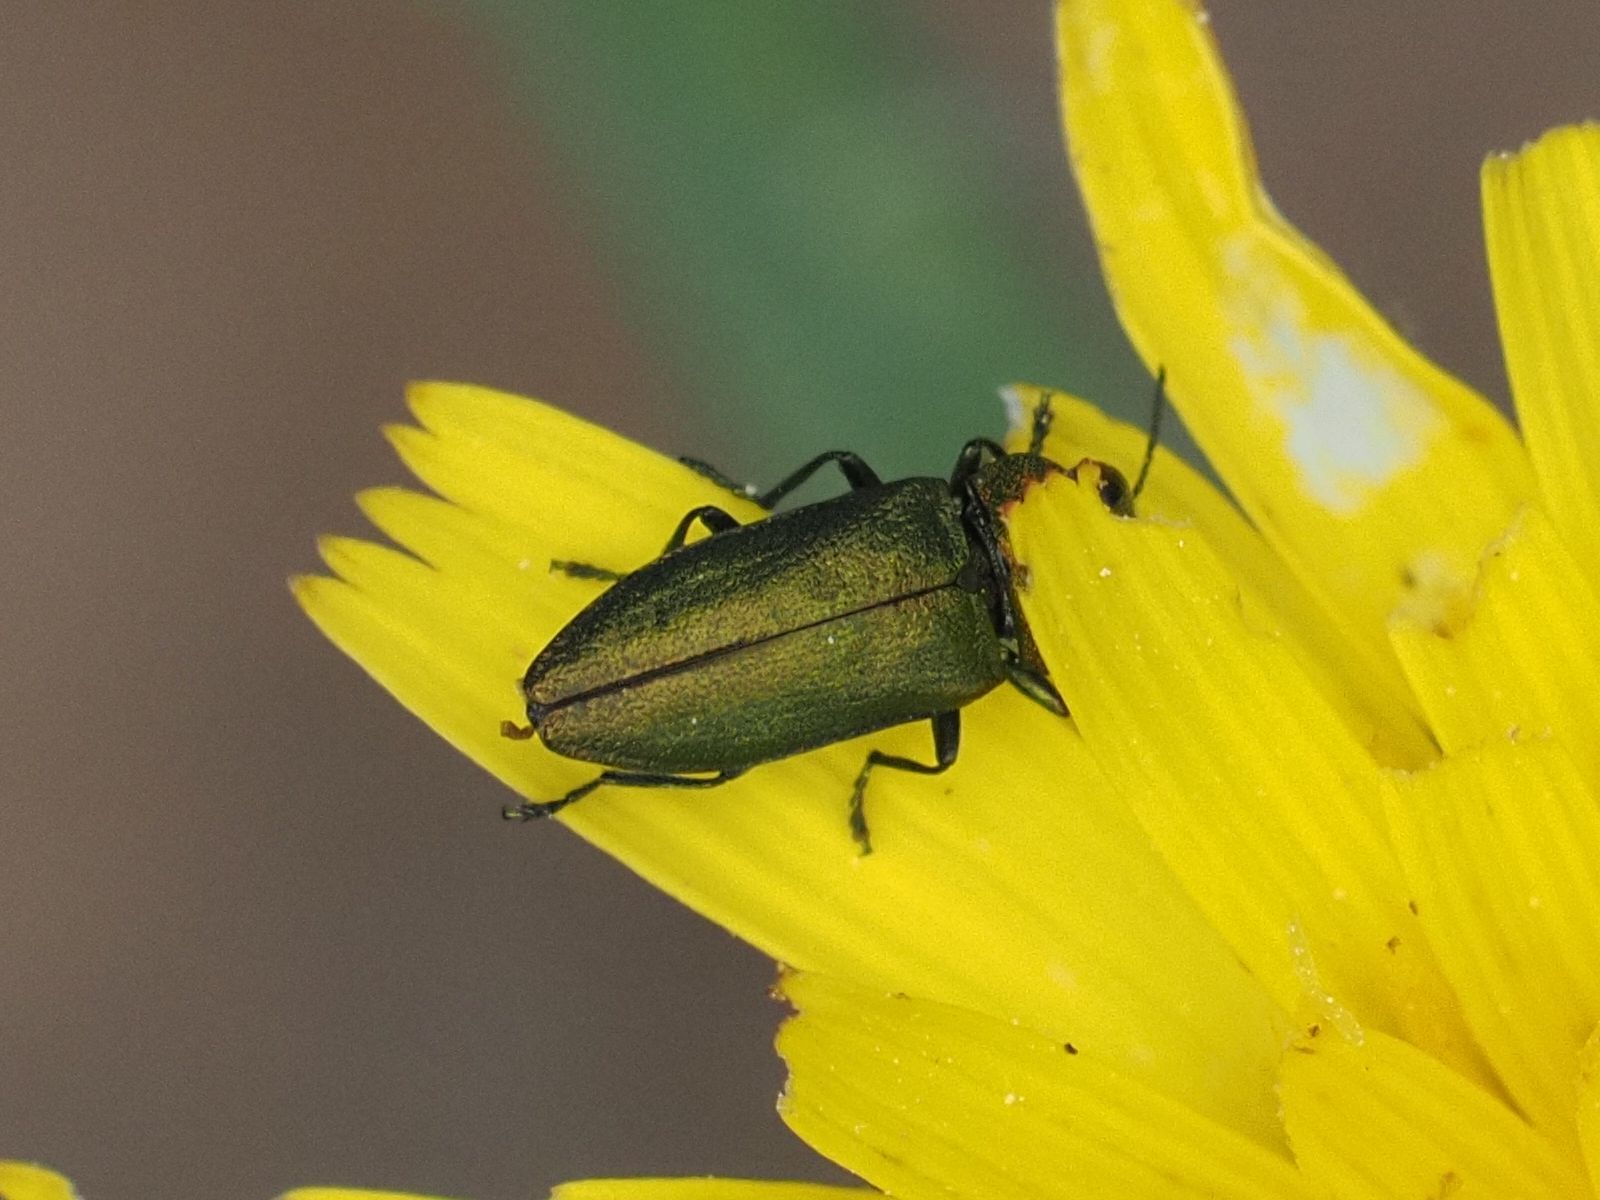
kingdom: Animalia
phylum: Arthropoda
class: Insecta
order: Coleoptera
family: Buprestidae
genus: Anthaxia
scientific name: Anthaxia nitidula
